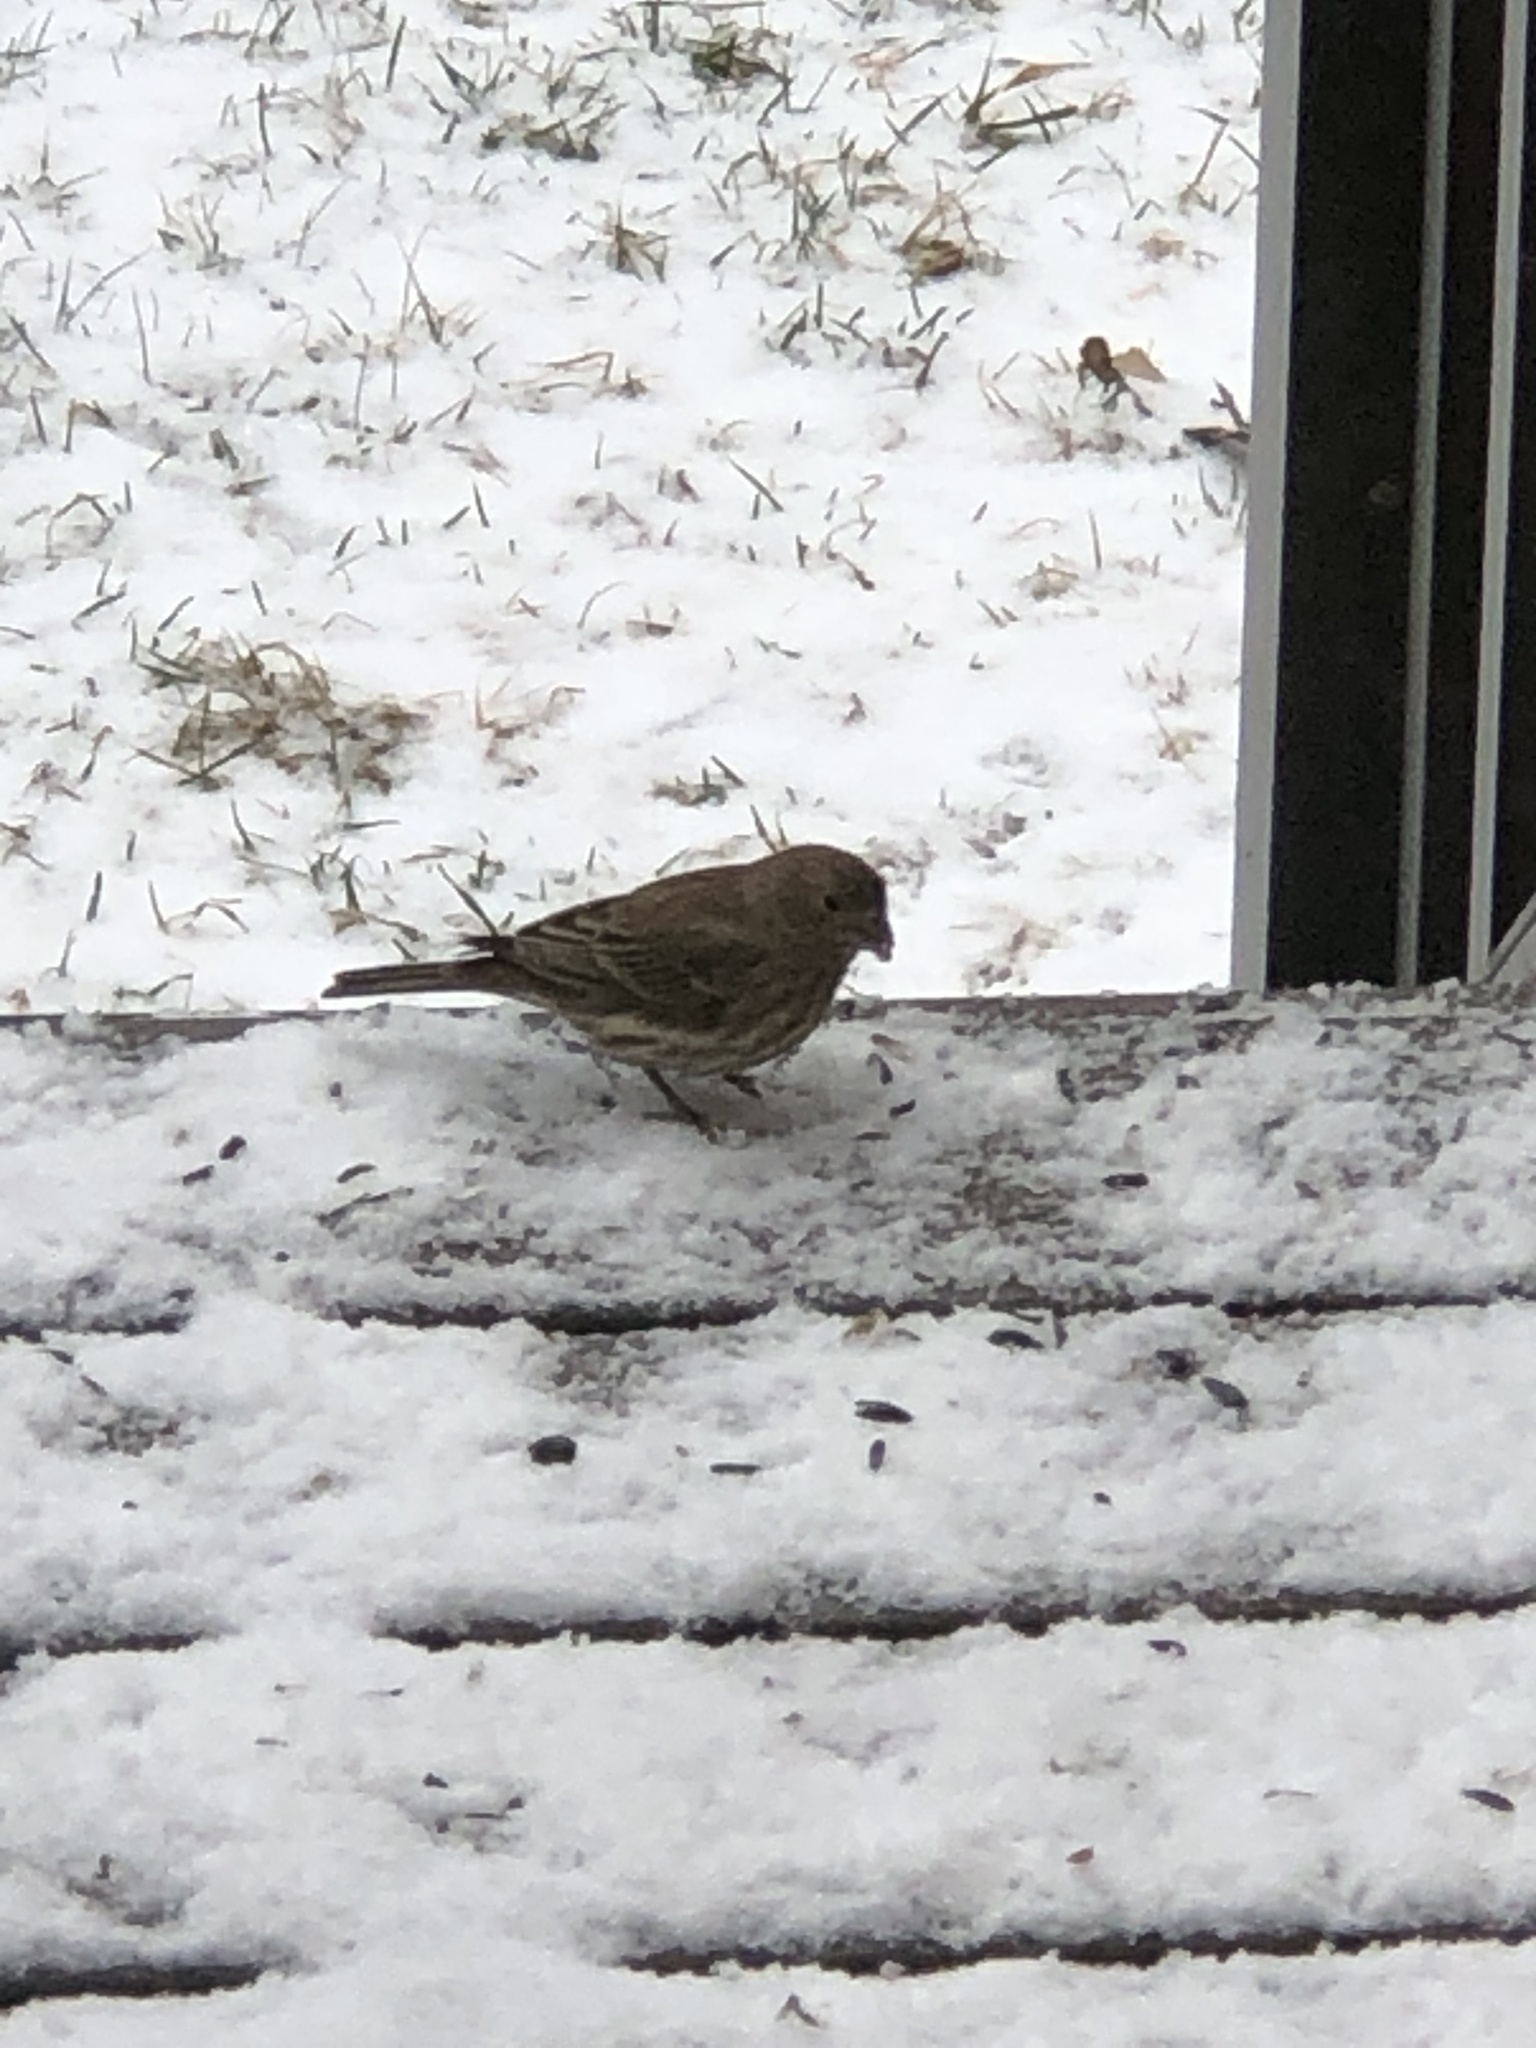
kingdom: Animalia
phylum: Chordata
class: Aves
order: Passeriformes
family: Fringillidae
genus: Haemorhous
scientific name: Haemorhous mexicanus
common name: House finch
